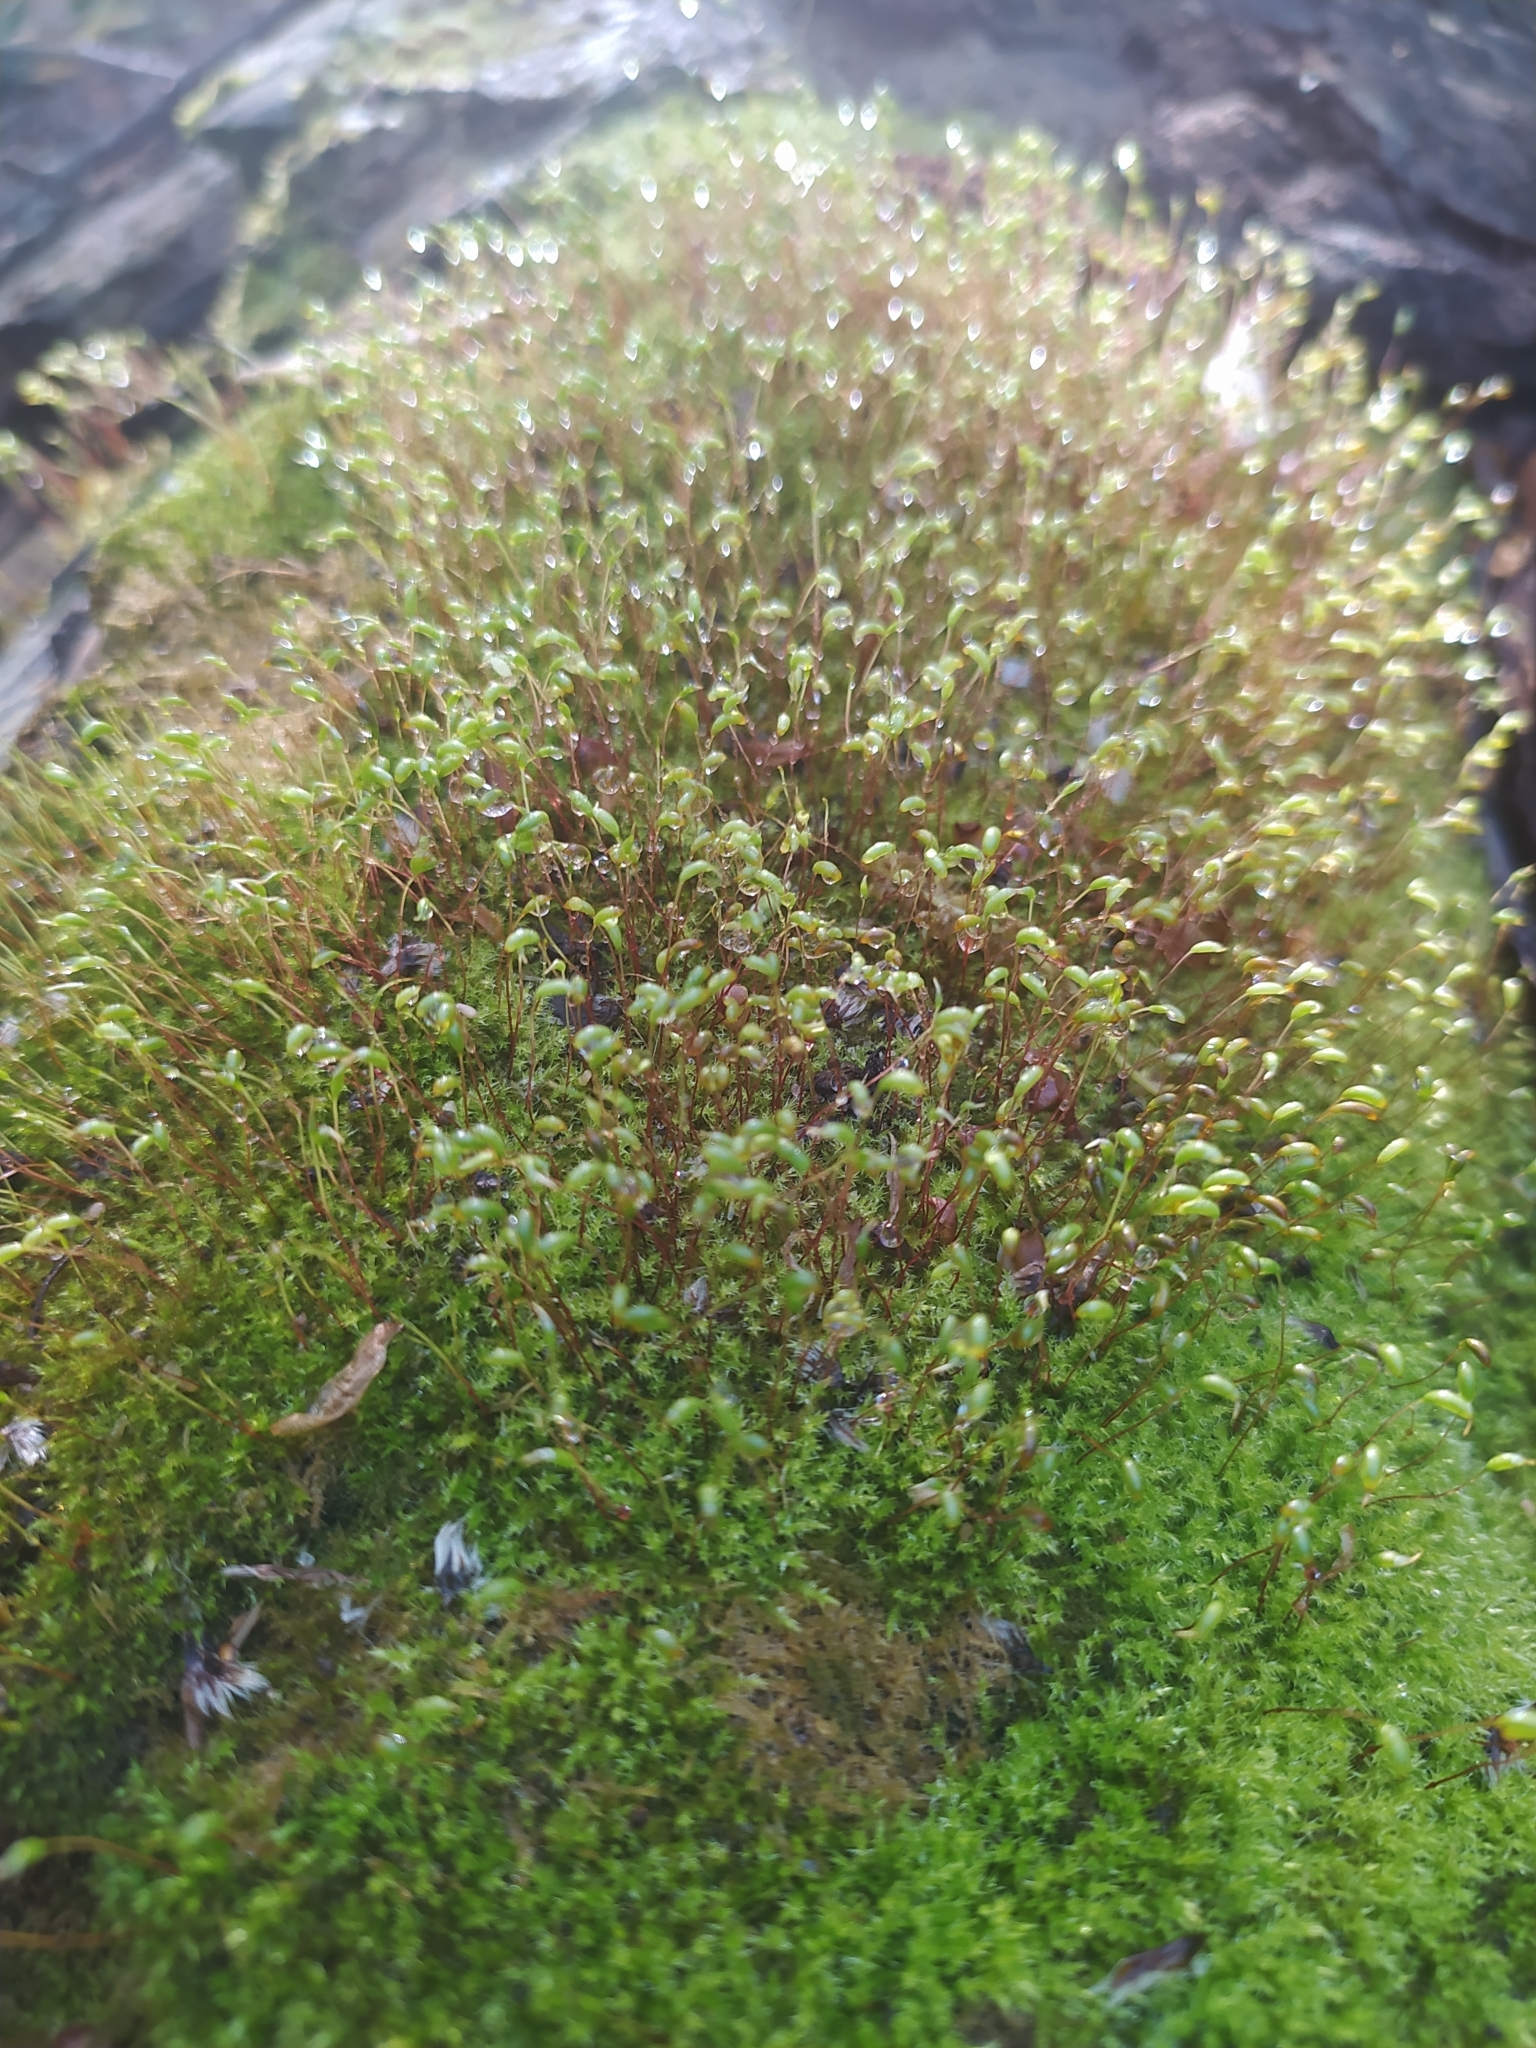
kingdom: Plantae
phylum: Bryophyta
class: Bryopsida
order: Hypnales
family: Amblystegiaceae
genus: Amblystegium
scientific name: Amblystegium serpens
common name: Jurkatzka's feather moss
